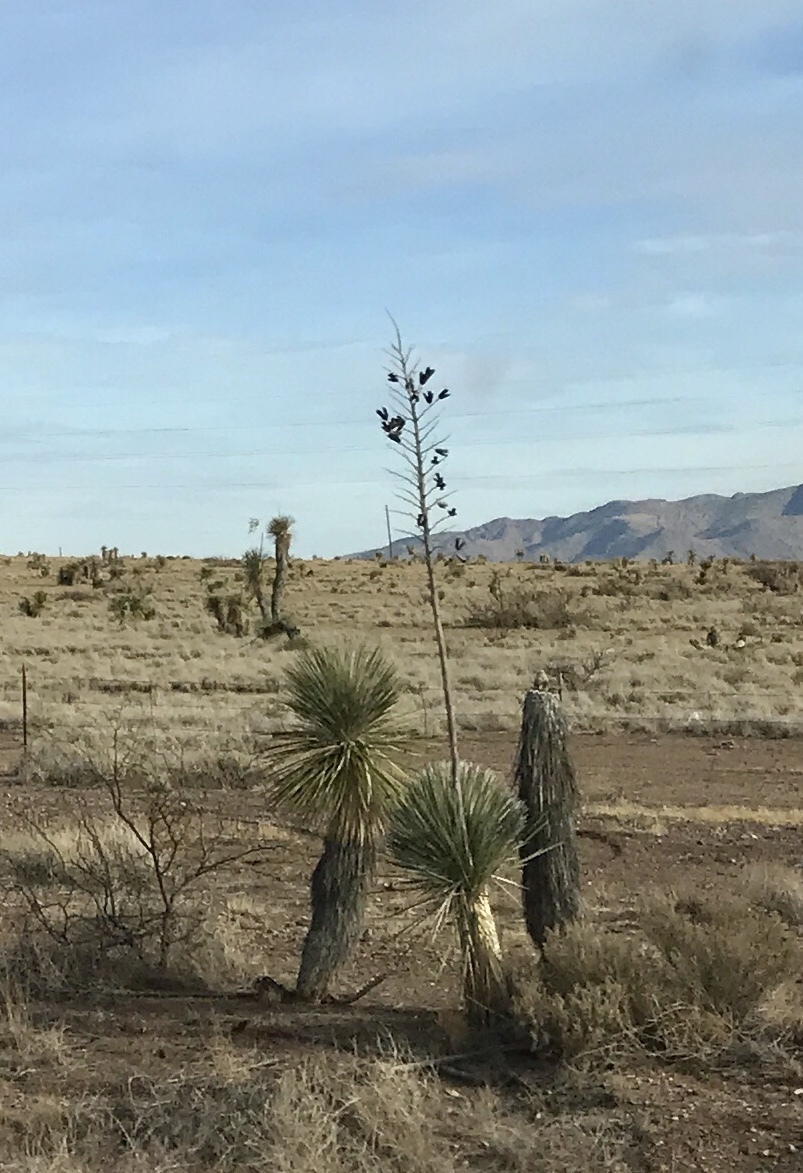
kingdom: Plantae
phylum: Tracheophyta
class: Liliopsida
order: Asparagales
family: Asparagaceae
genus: Yucca
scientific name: Yucca elata
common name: Palmella
